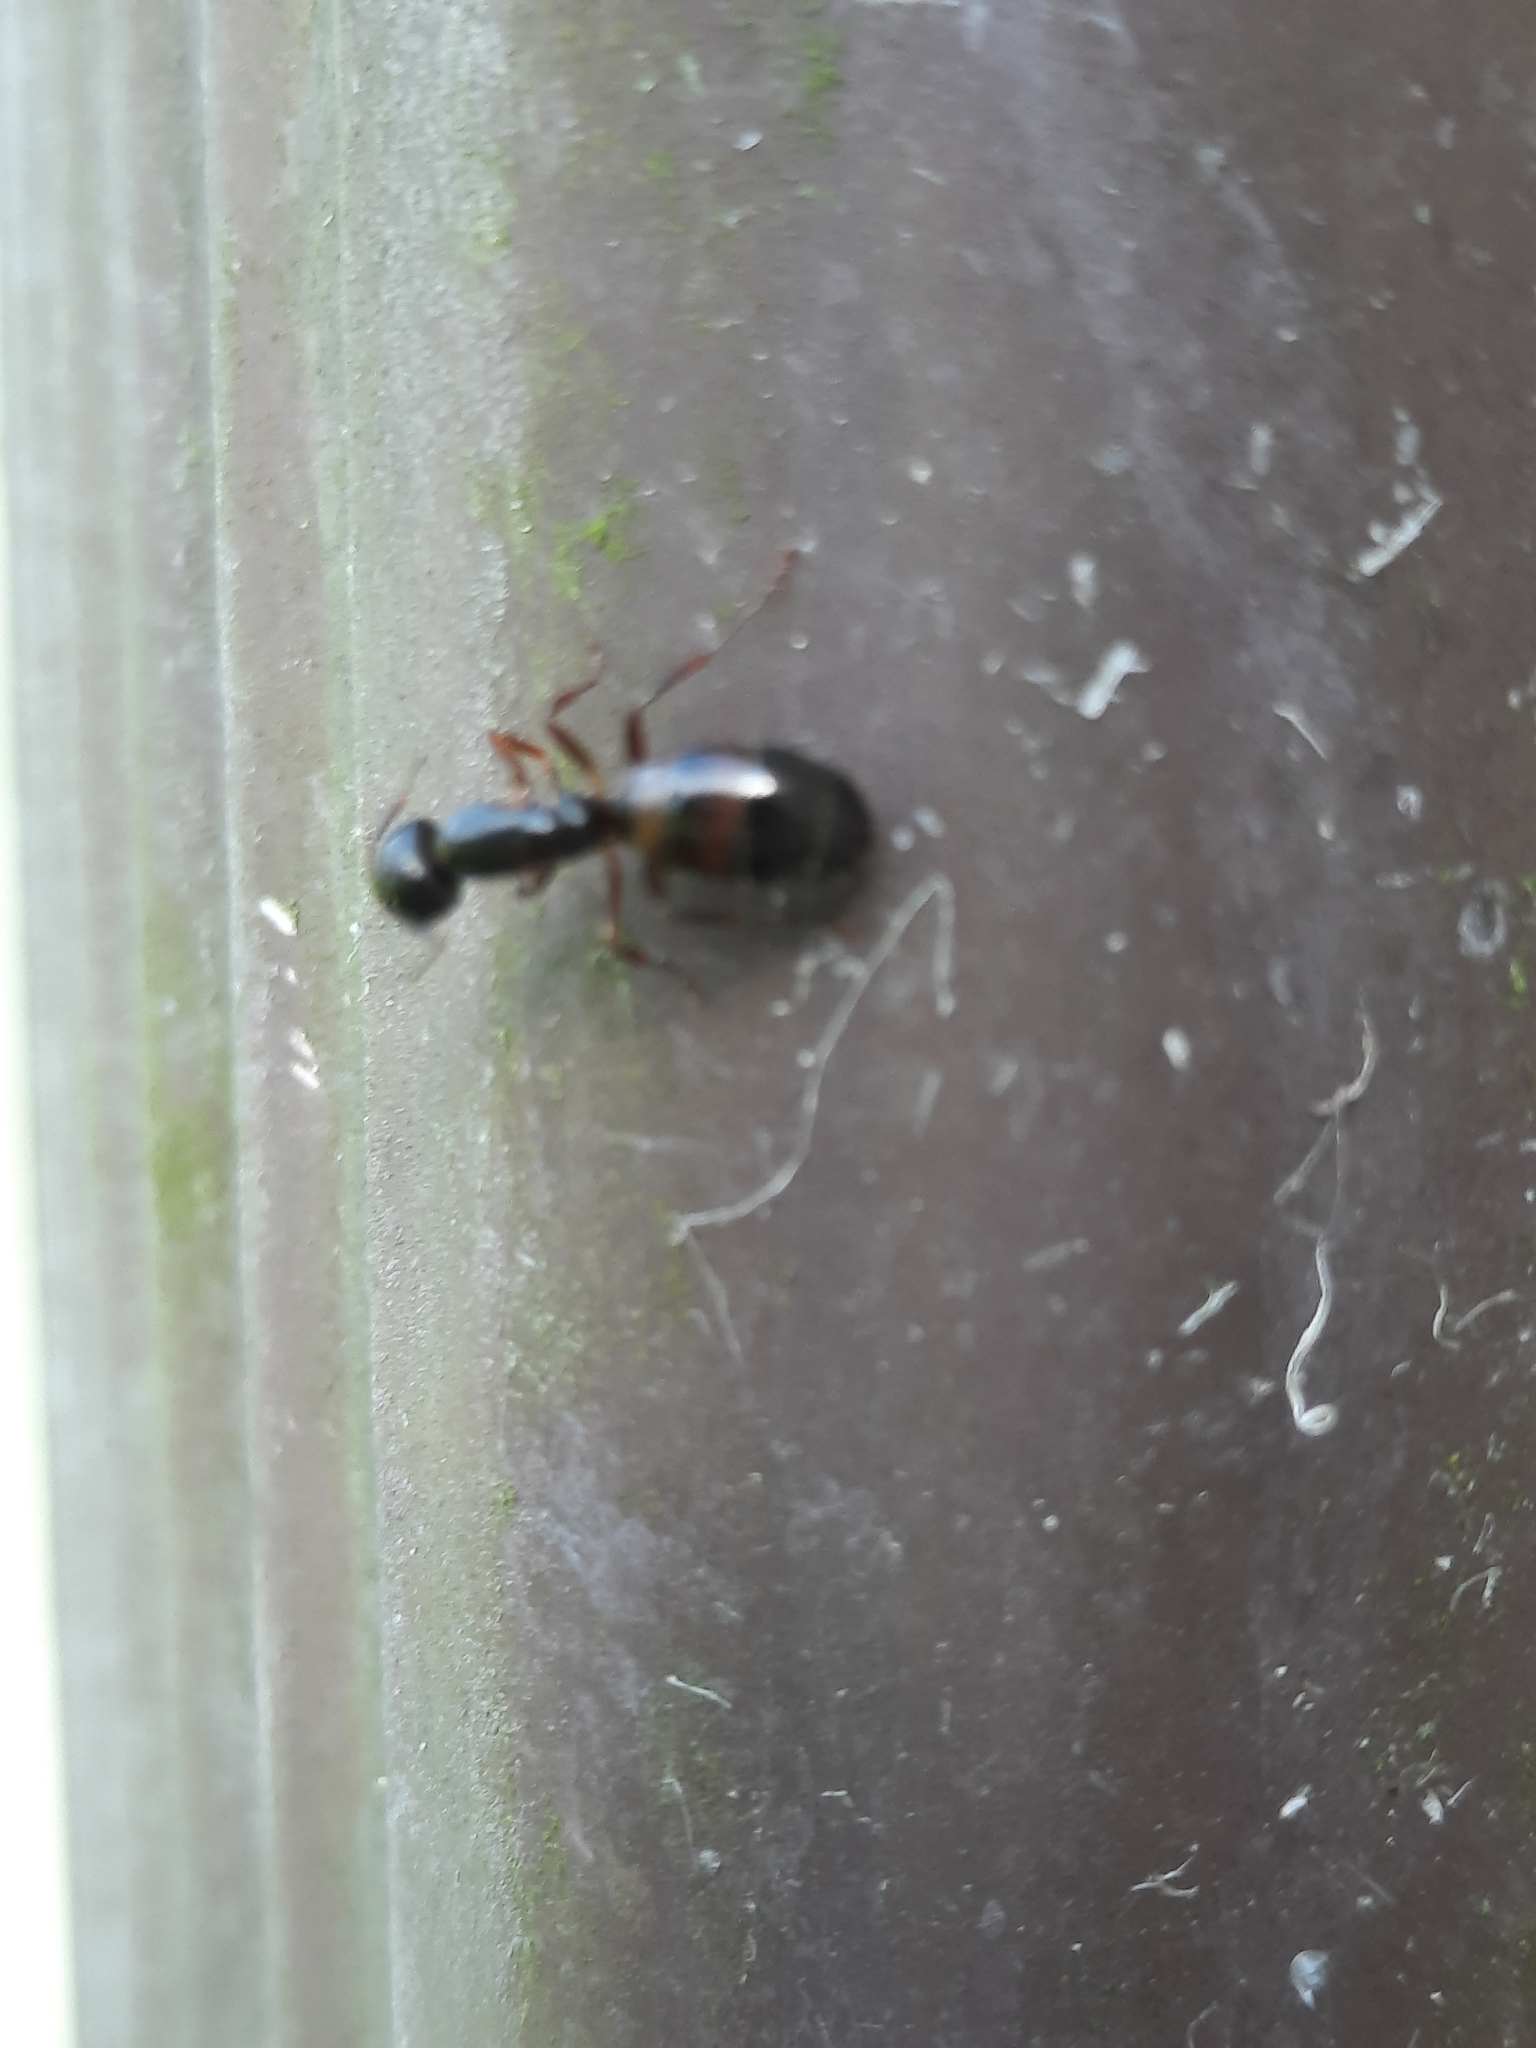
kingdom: Animalia
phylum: Arthropoda
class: Insecta
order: Hymenoptera
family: Formicidae
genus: Camponotus
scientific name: Camponotus nearcticus
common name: Smaller carpenter ant
